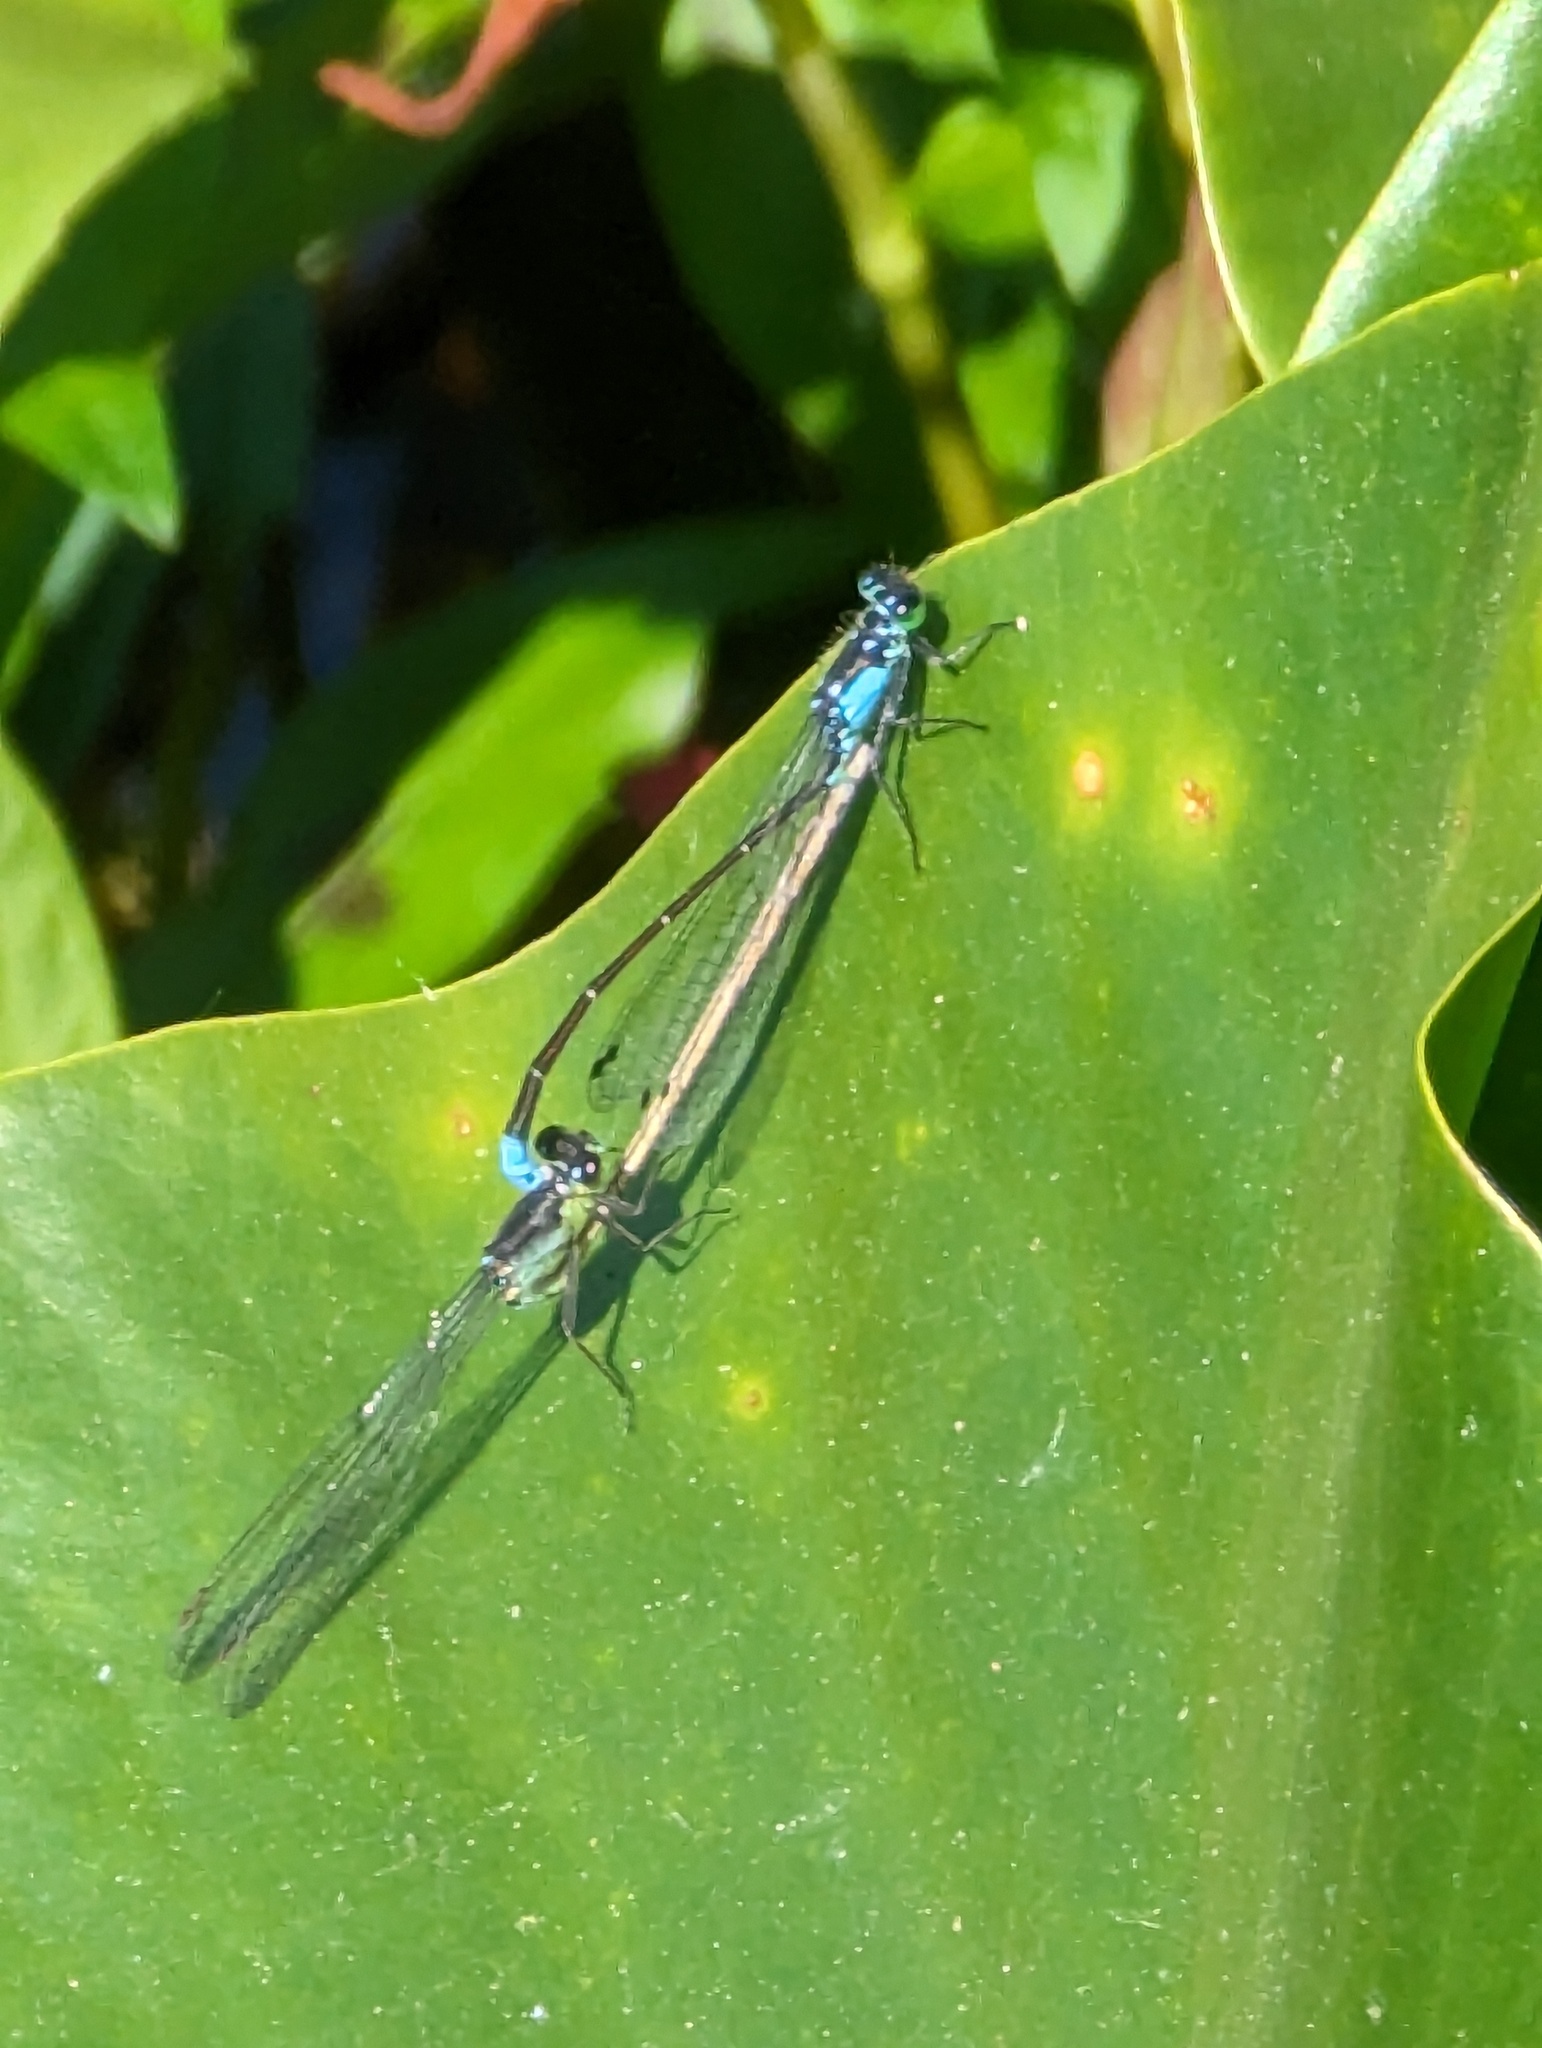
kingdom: Animalia
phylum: Arthropoda
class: Insecta
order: Odonata
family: Coenagrionidae
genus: Ischnura
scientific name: Ischnura cervula
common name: Pacific forktail
